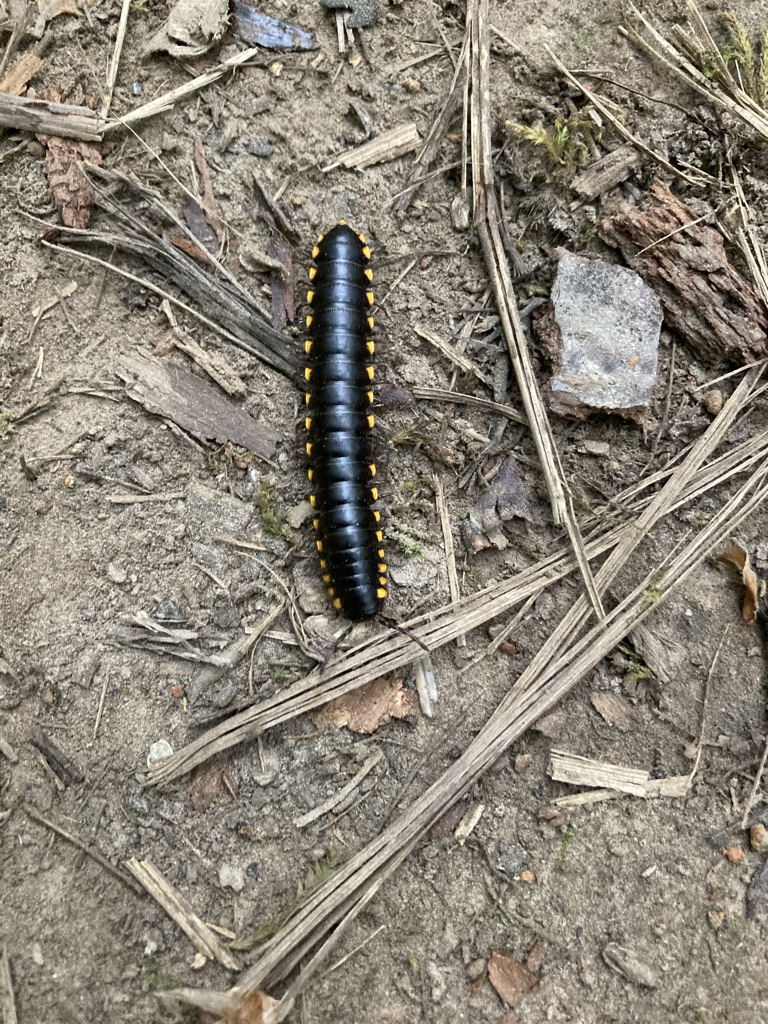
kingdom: Animalia
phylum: Arthropoda
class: Diplopoda
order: Polydesmida
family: Xystodesmidae
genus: Harpaphe
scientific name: Harpaphe haydeniana
